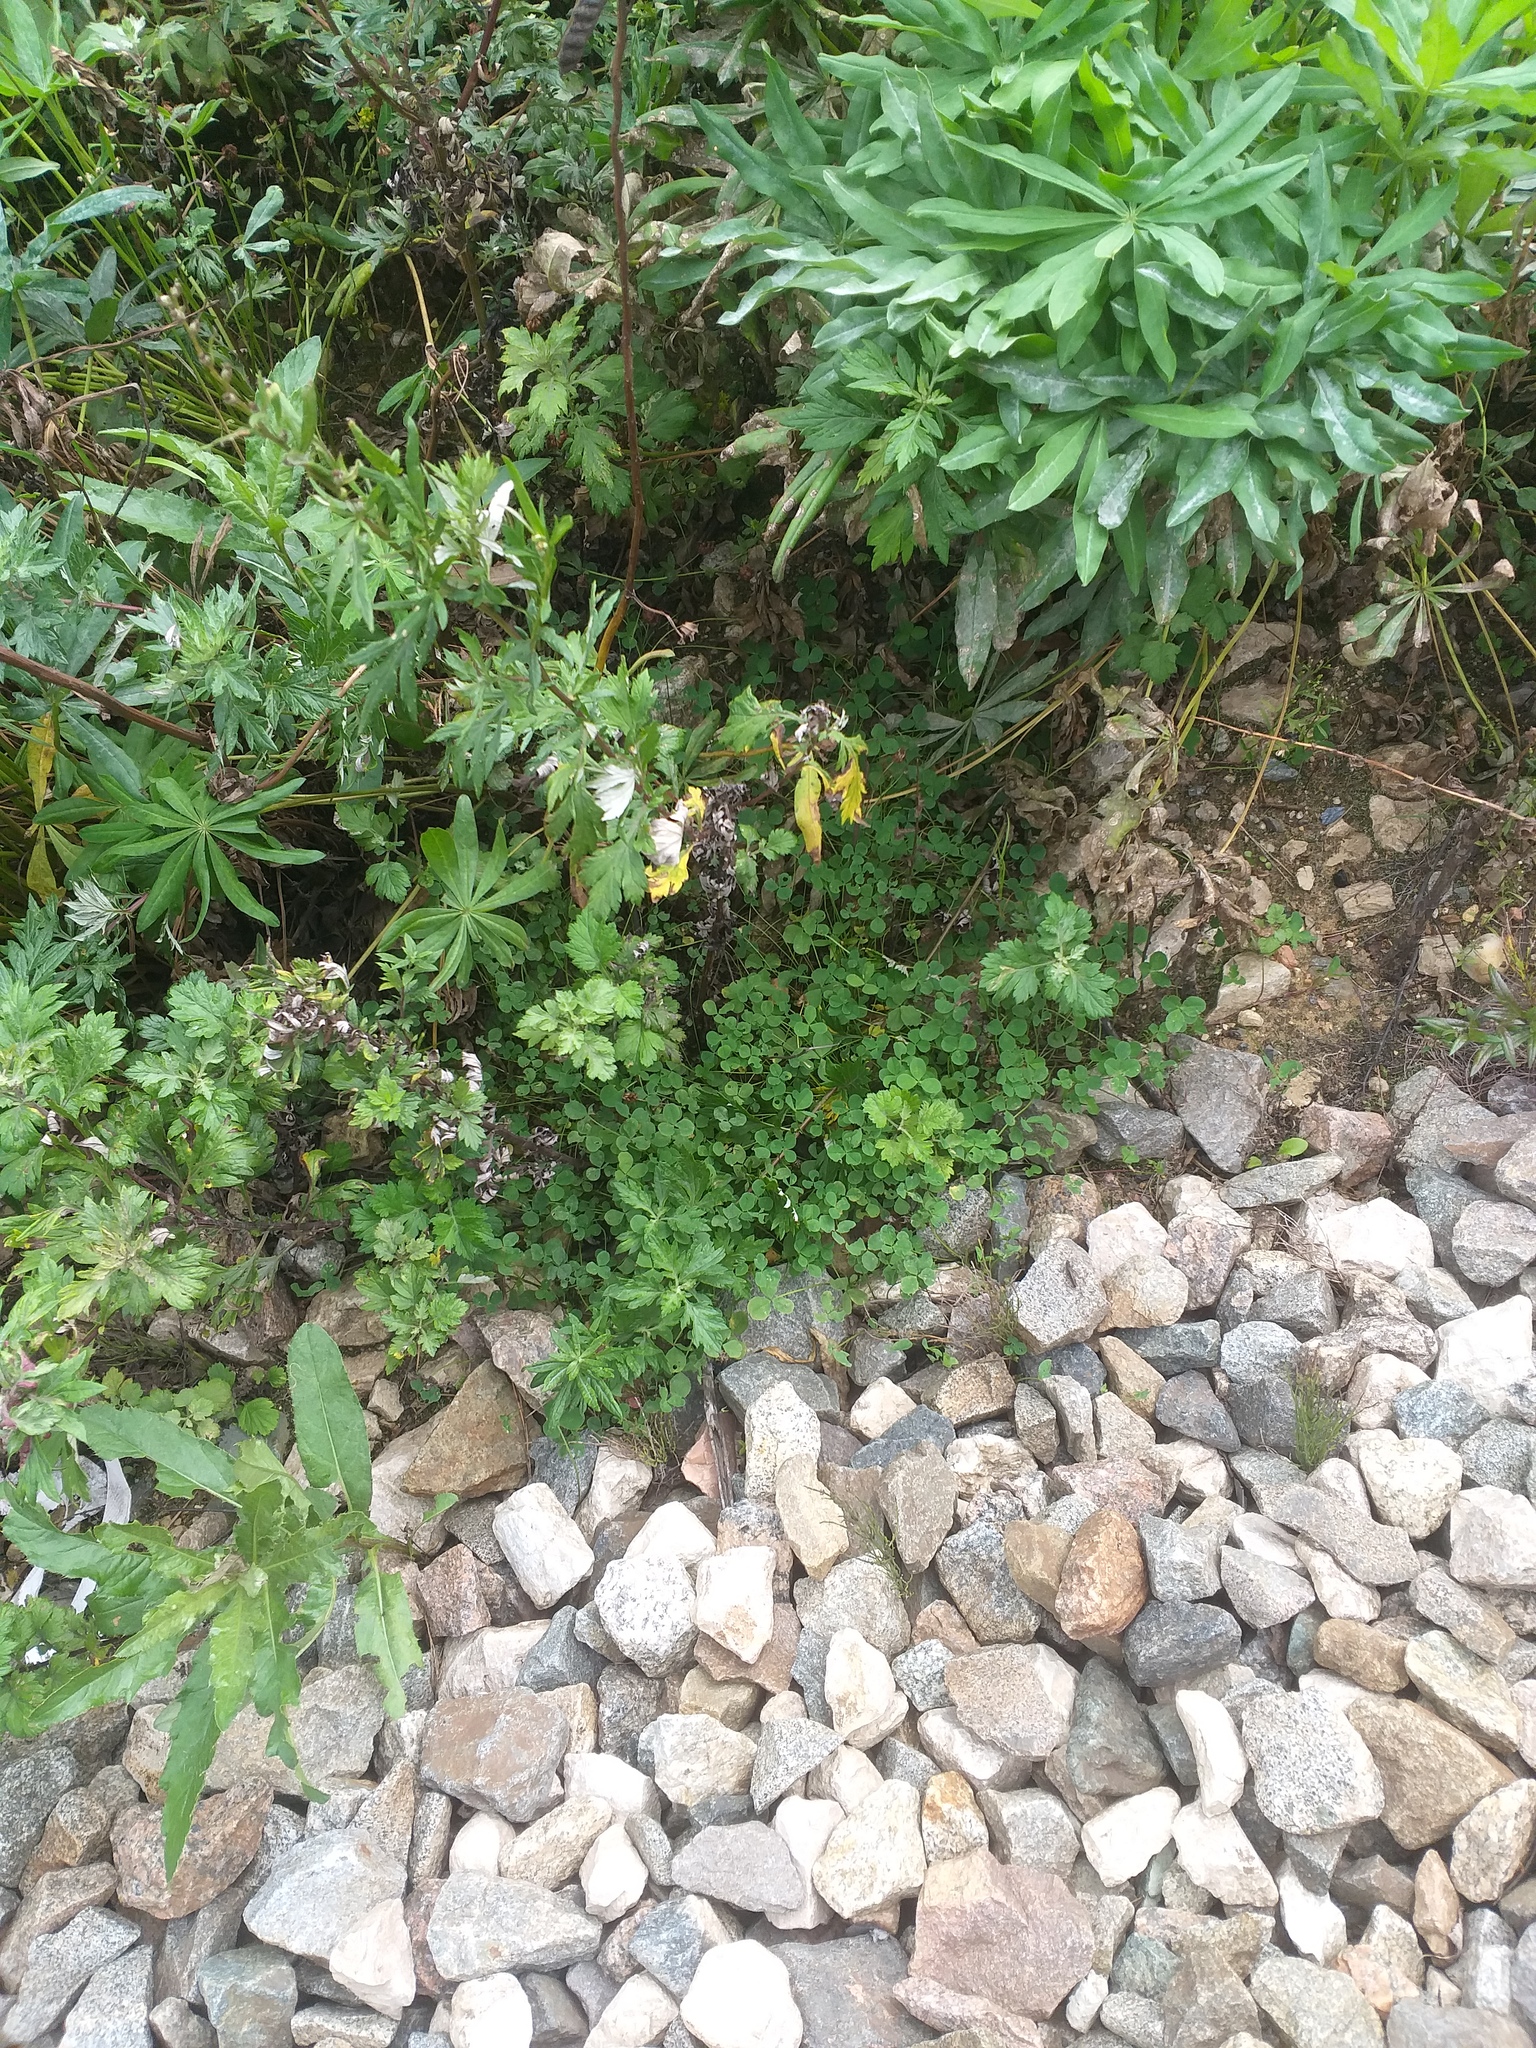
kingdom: Plantae
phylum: Tracheophyta
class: Magnoliopsida
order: Fabales
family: Fabaceae
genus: Trifolium
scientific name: Trifolium repens
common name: White clover
